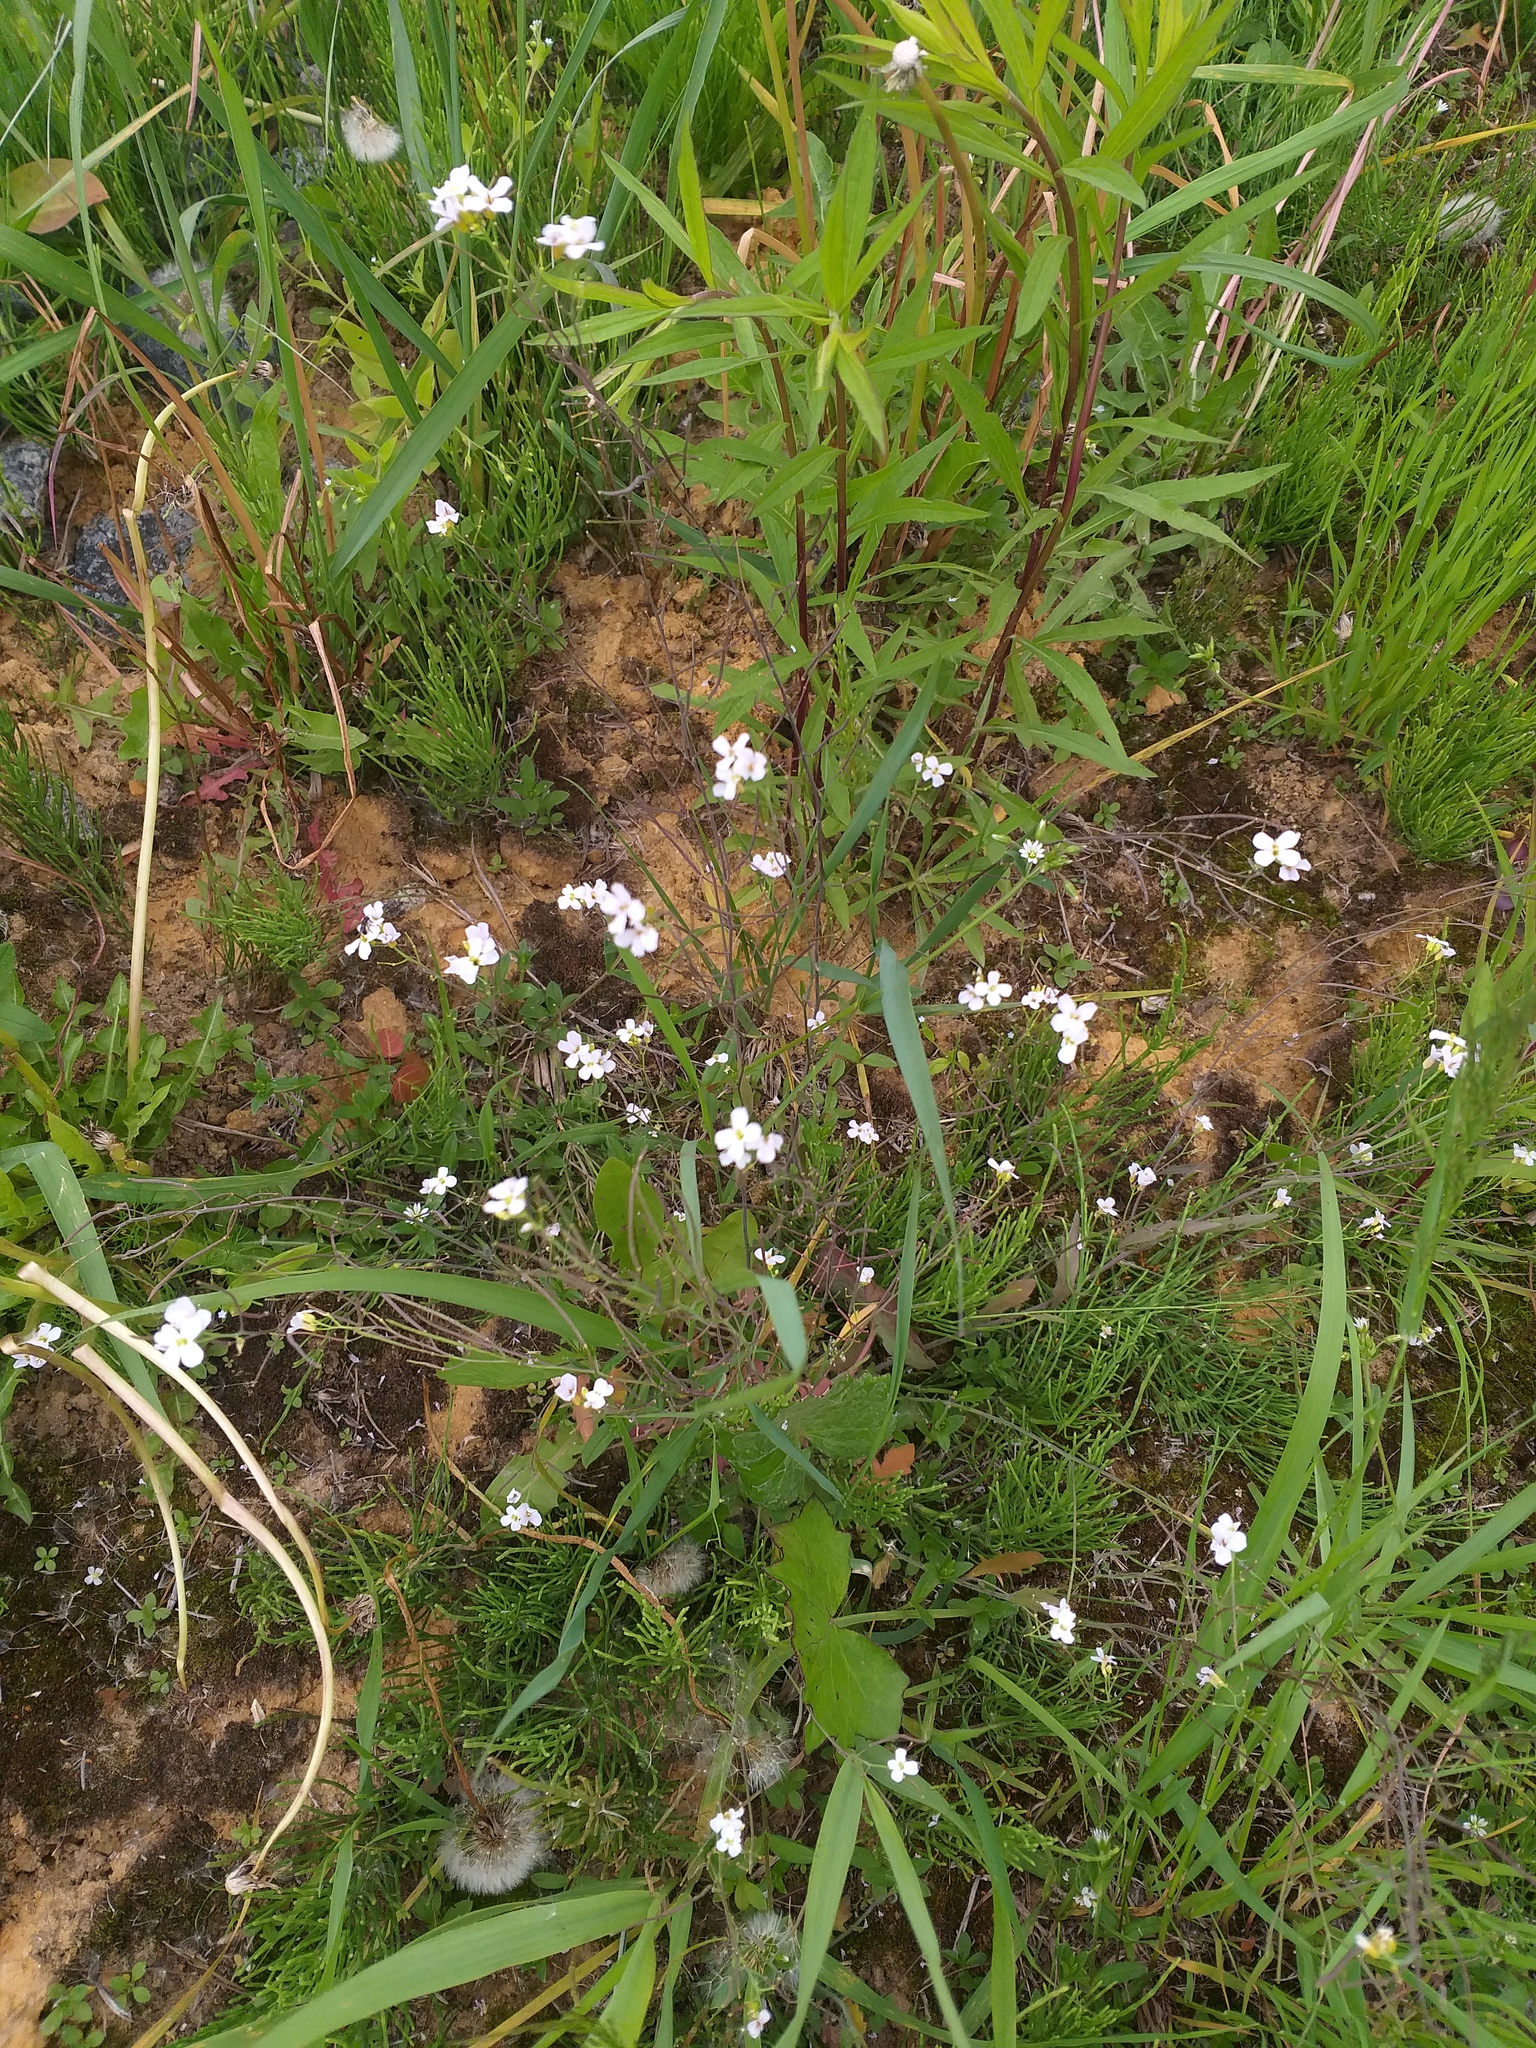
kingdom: Plantae
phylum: Tracheophyta
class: Magnoliopsida
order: Brassicales
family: Brassicaceae
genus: Arabidopsis
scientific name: Arabidopsis arenosa
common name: Sand rock-cress
